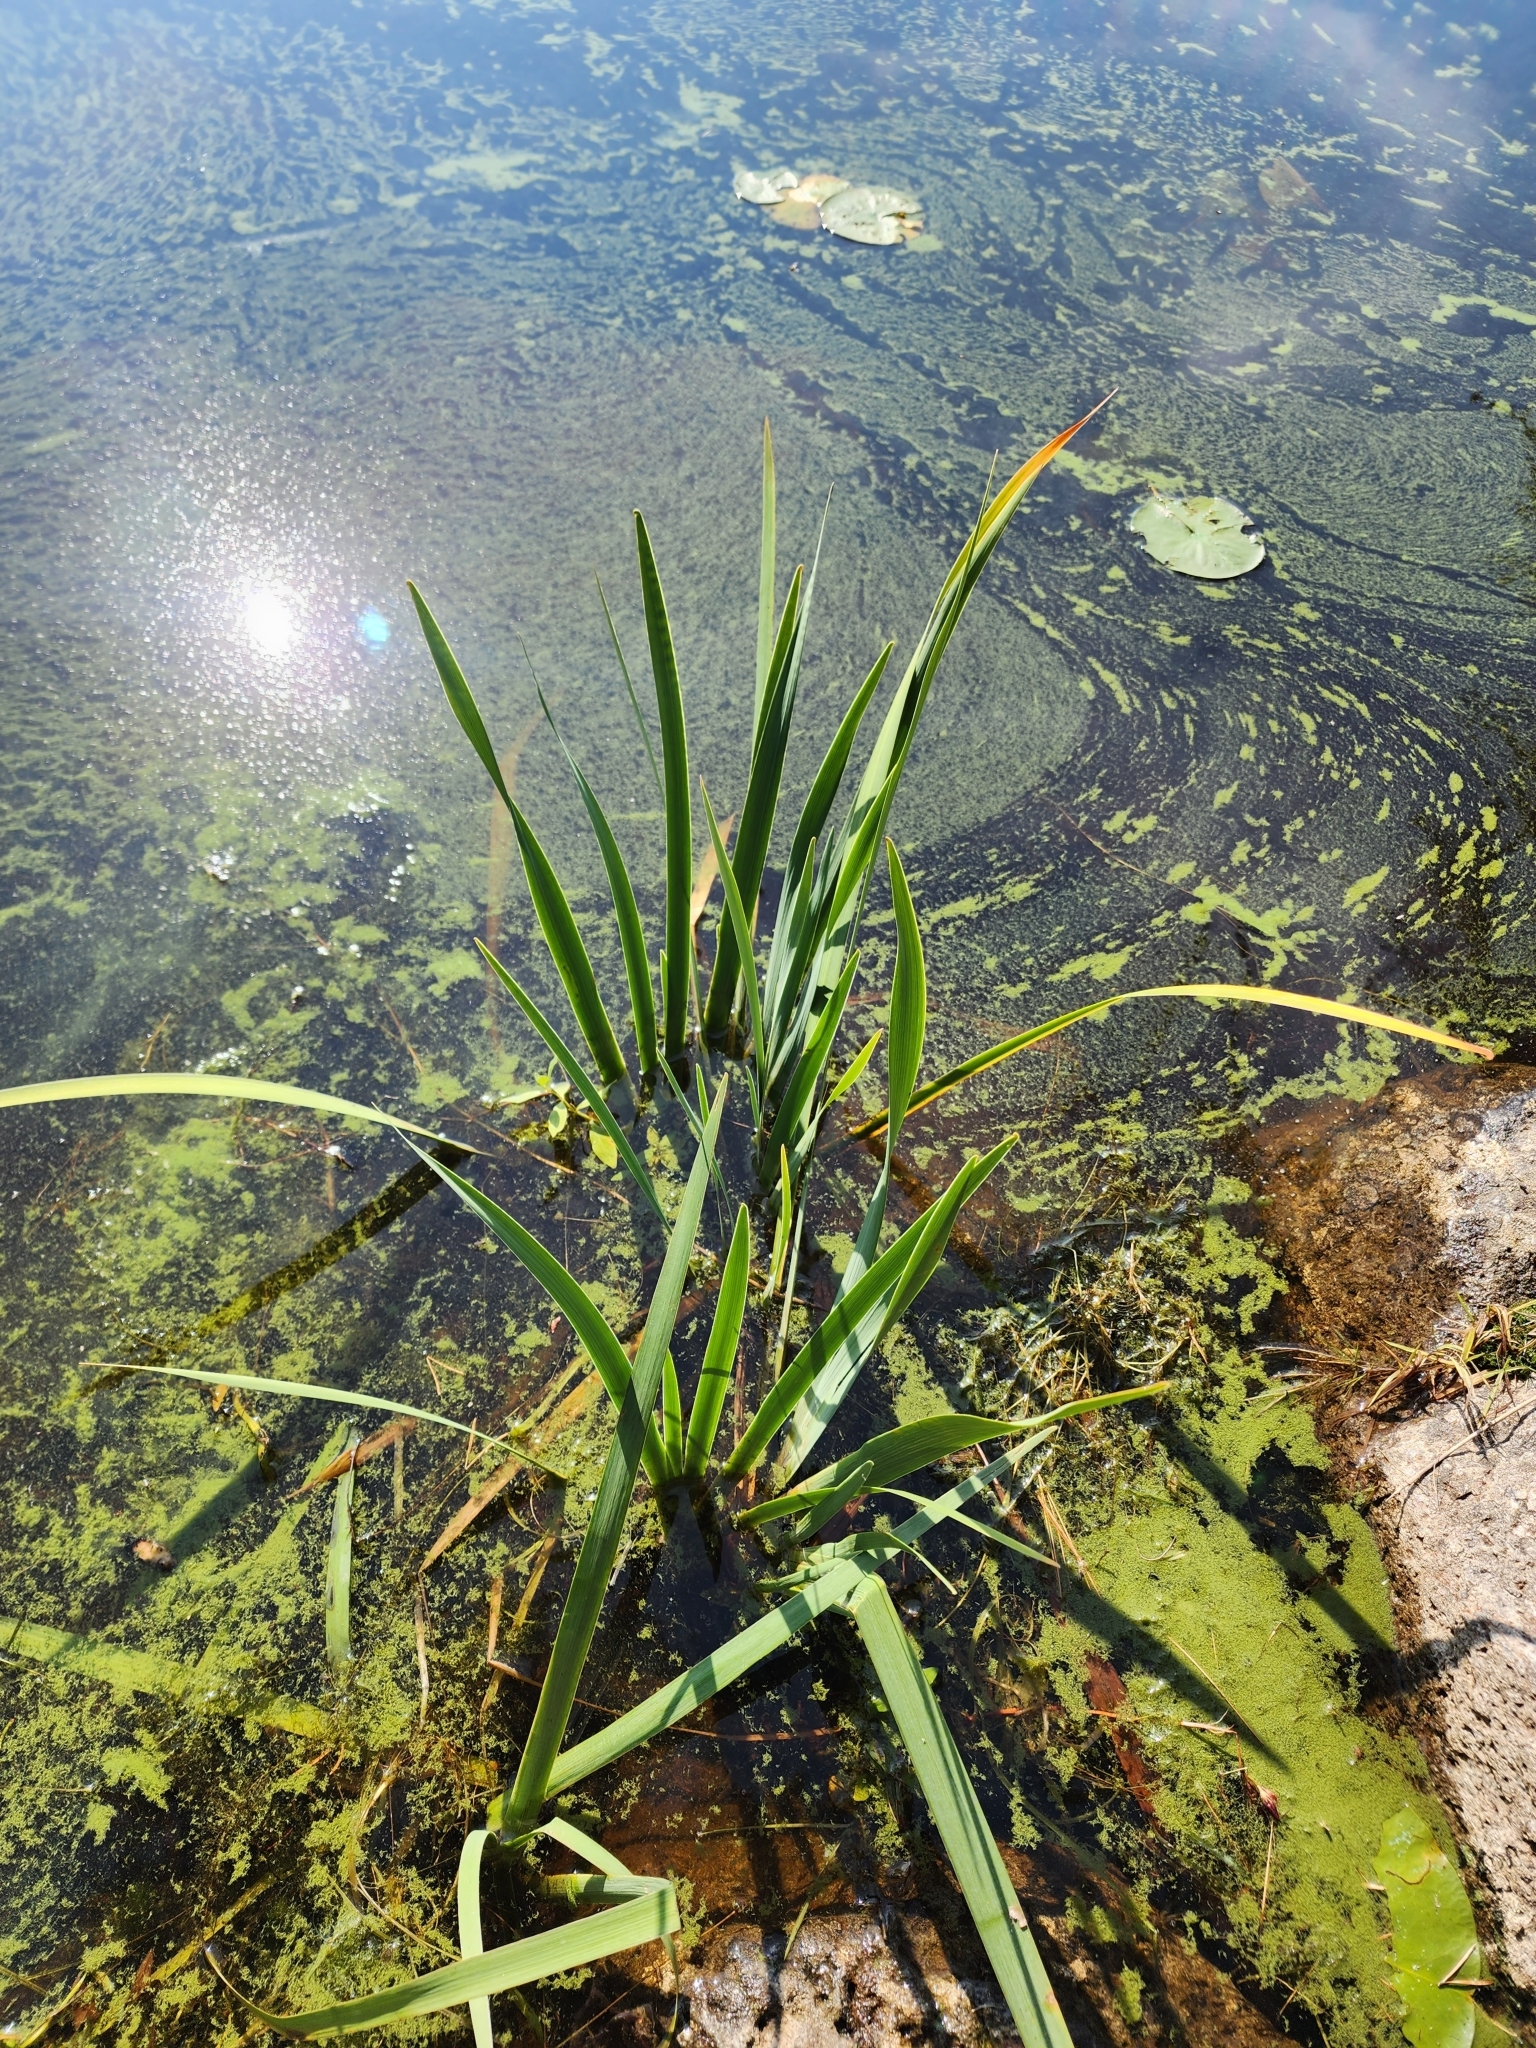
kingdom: Plantae
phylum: Tracheophyta
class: Liliopsida
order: Asparagales
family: Iridaceae
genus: Iris
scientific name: Iris versicolor
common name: Purple iris
